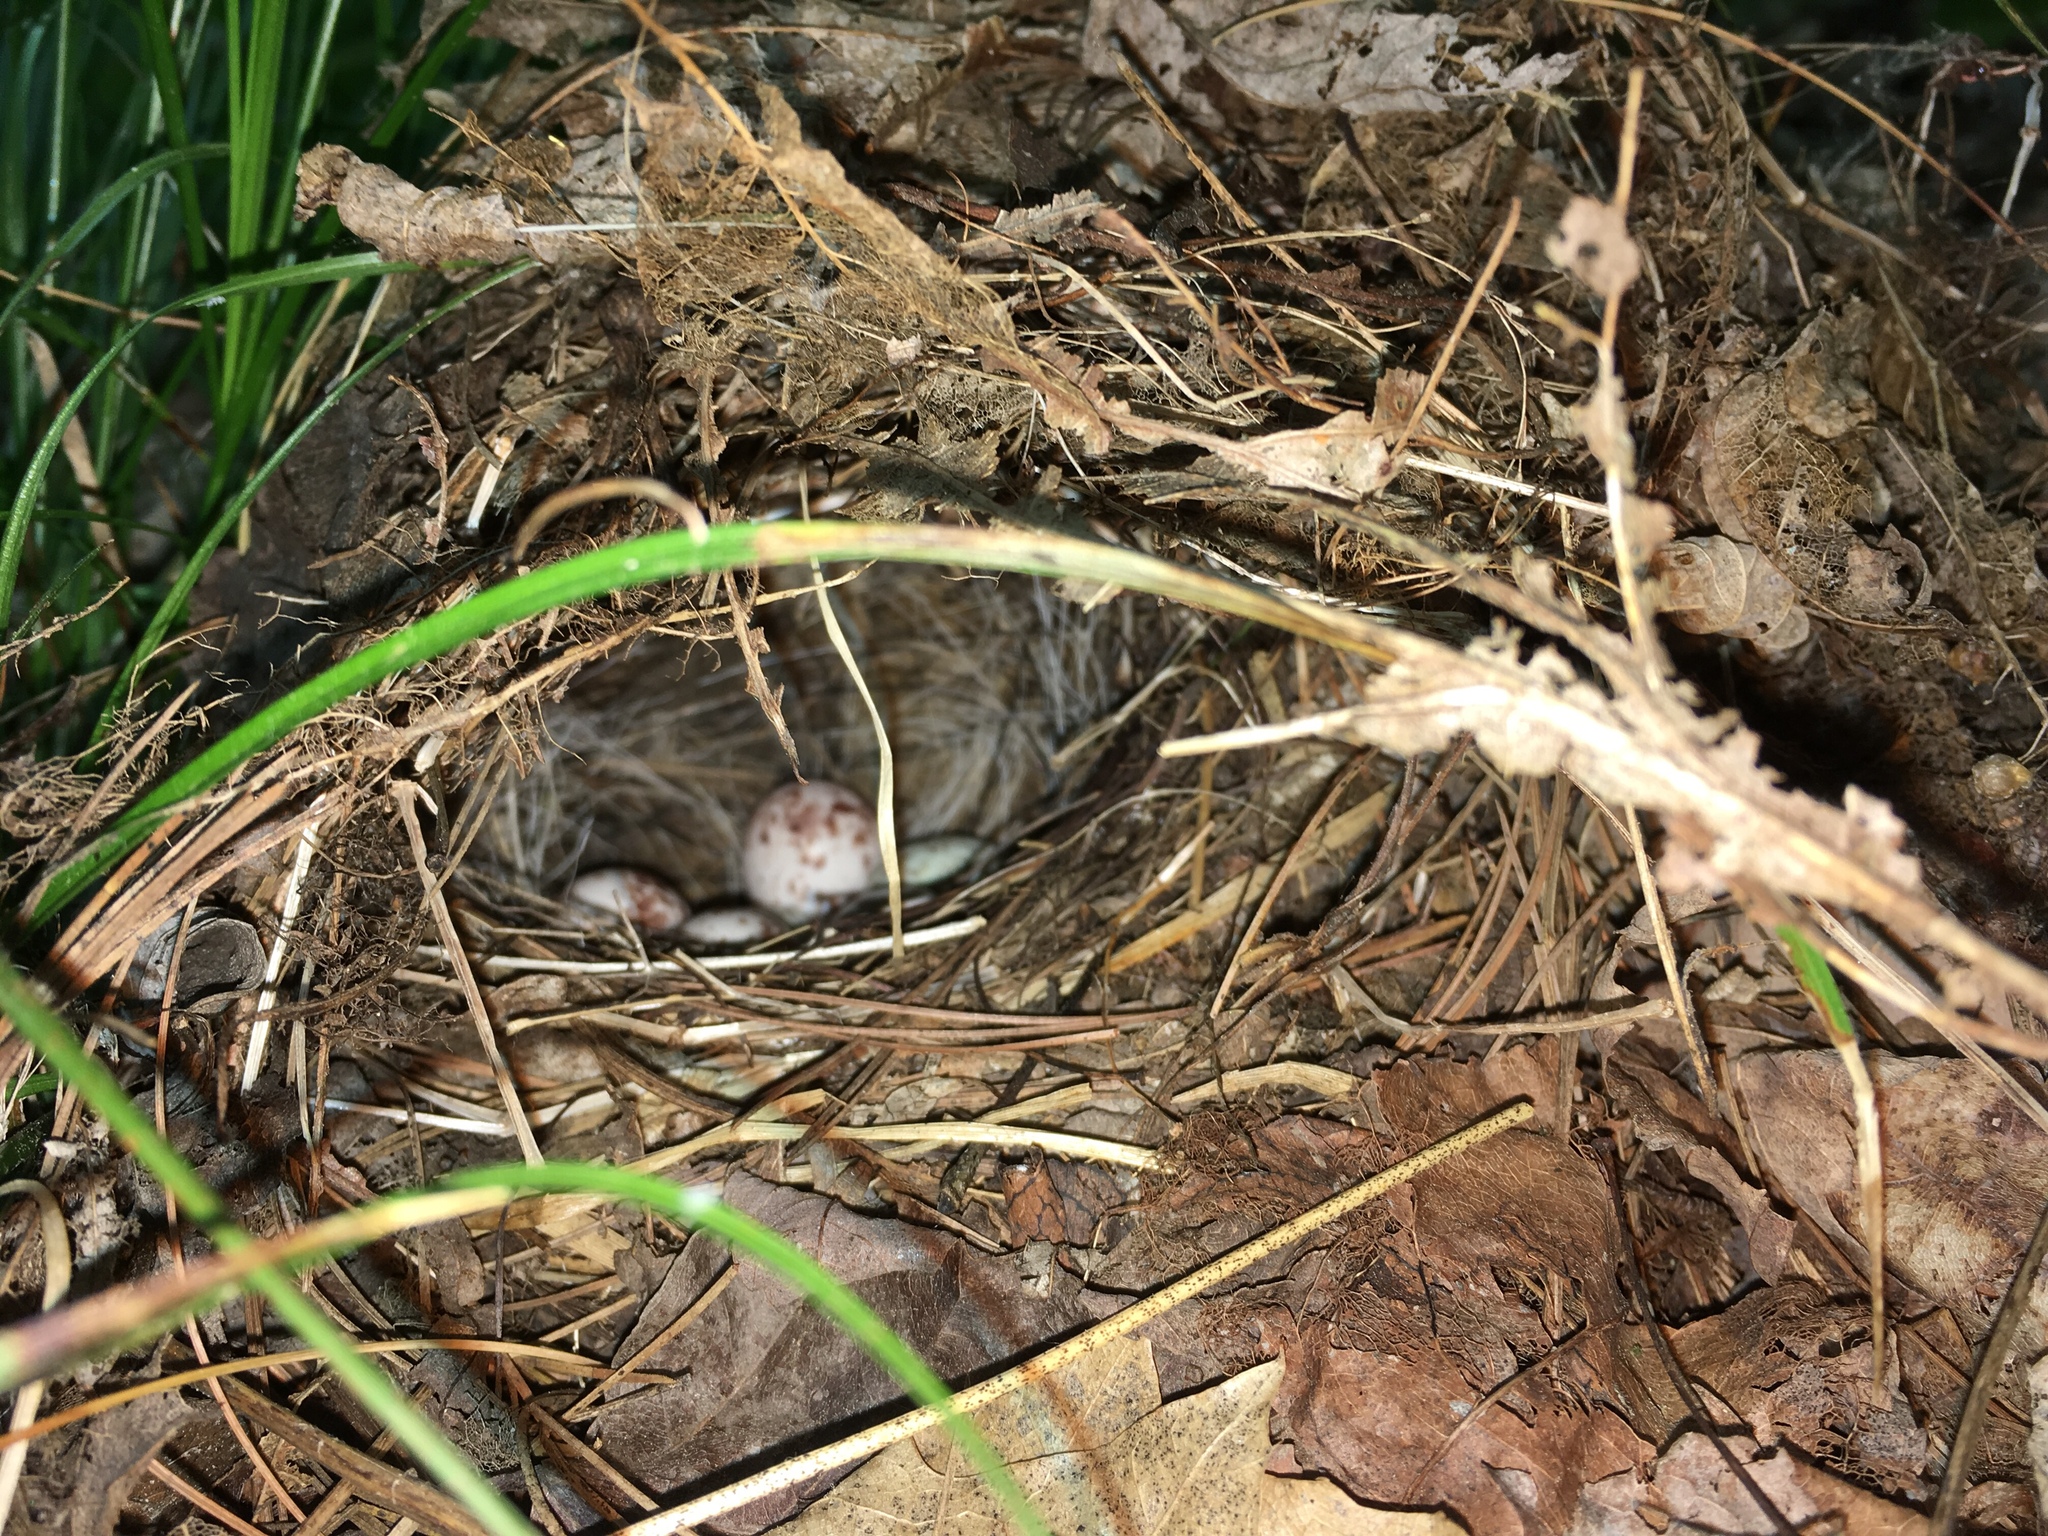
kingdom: Animalia
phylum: Chordata
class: Aves
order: Passeriformes
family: Parulidae
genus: Seiurus
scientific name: Seiurus aurocapilla
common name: Ovenbird
